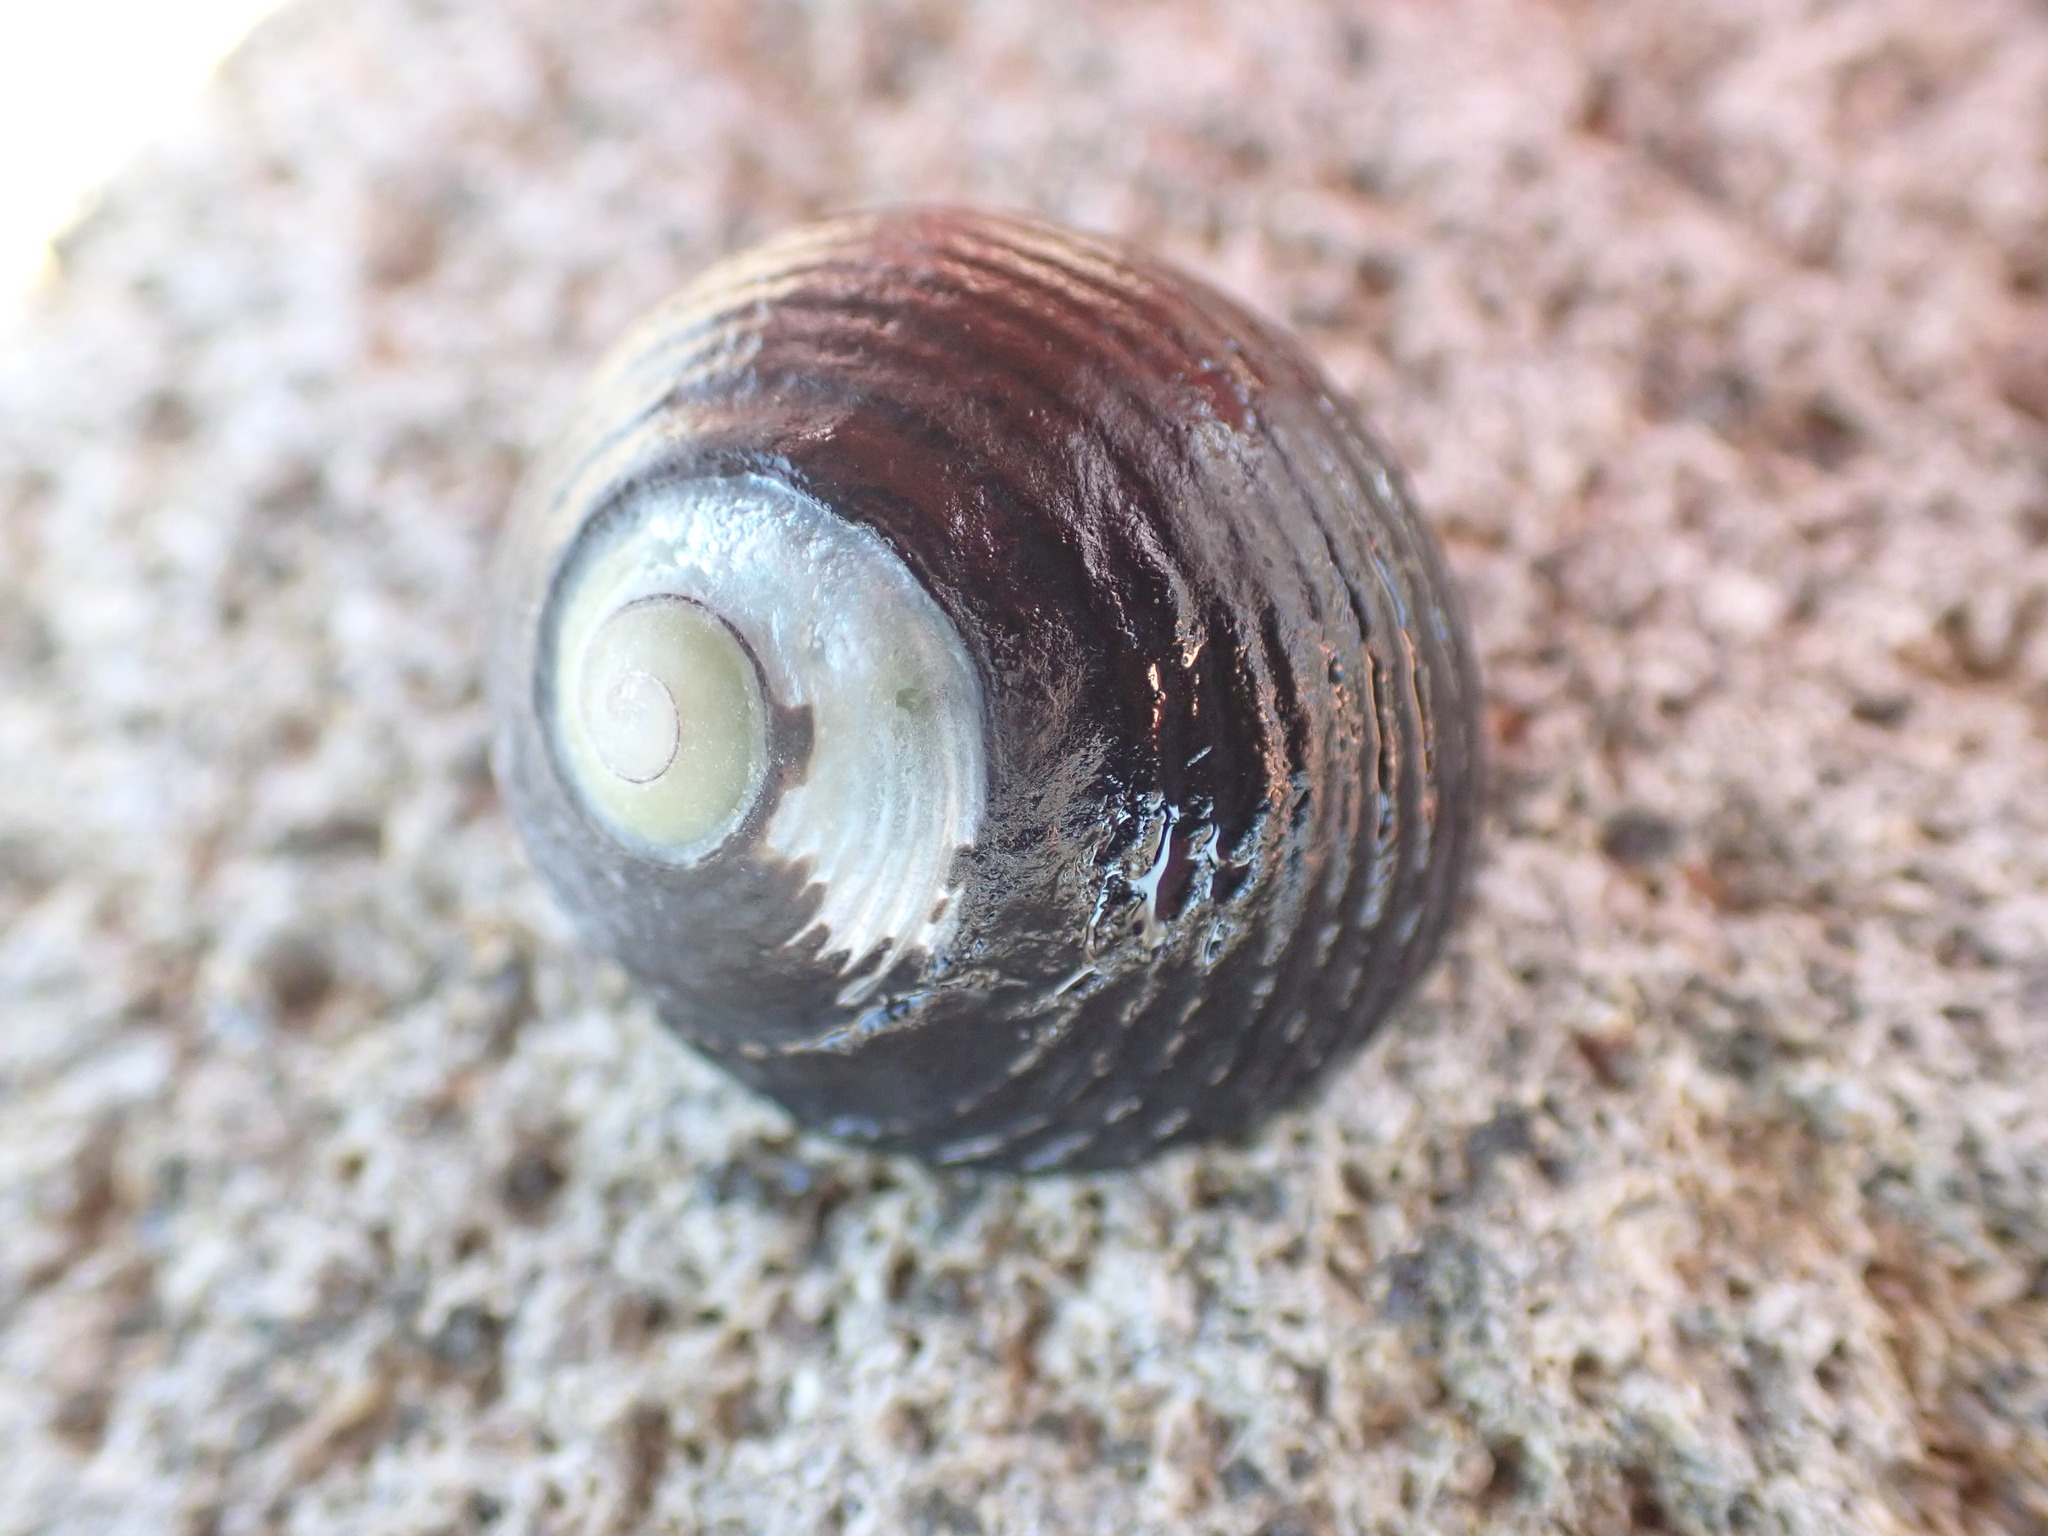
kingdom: Animalia
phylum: Mollusca
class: Gastropoda
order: Trochida
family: Trochidae
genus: Diloma
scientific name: Diloma zelandicum
